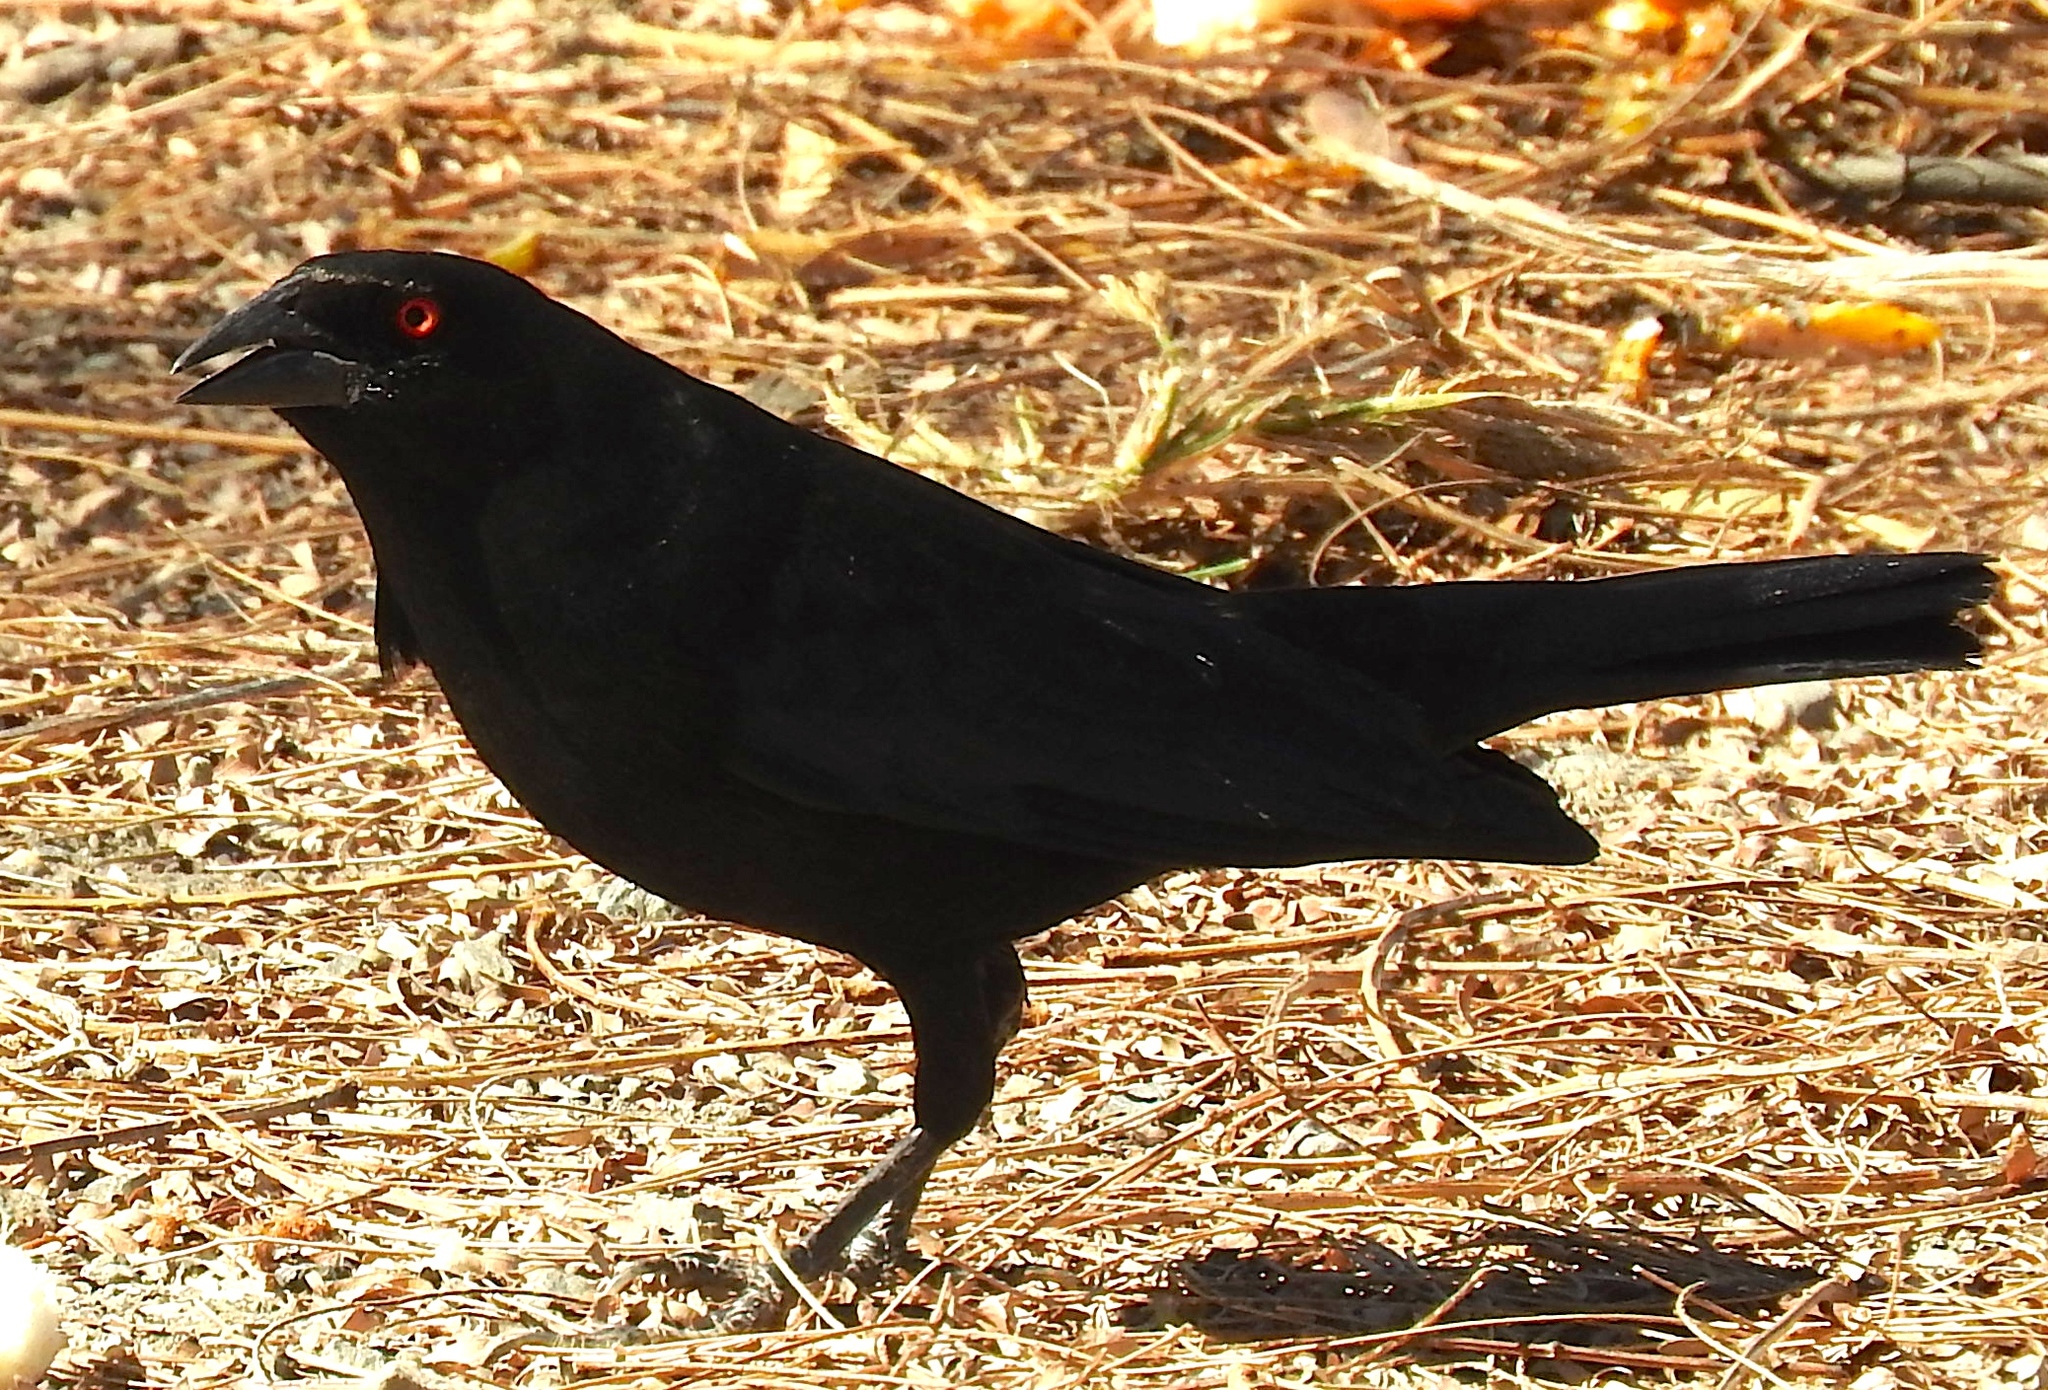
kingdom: Animalia
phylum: Chordata
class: Aves
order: Passeriformes
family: Icteridae
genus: Molothrus
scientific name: Molothrus aeneus
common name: Bronzed cowbird
